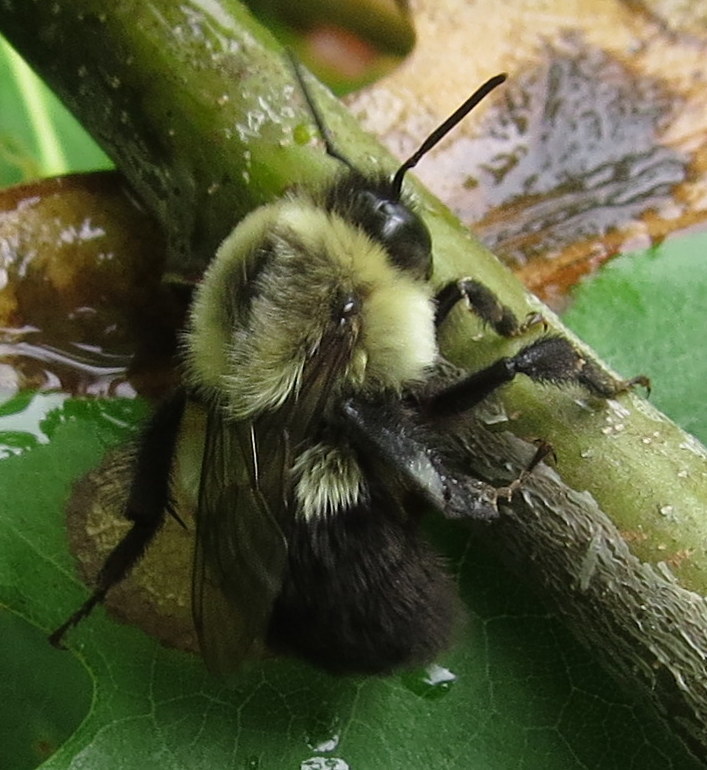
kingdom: Animalia
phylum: Arthropoda
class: Insecta
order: Hymenoptera
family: Apidae
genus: Bombus
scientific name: Bombus impatiens
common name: Common eastern bumble bee
